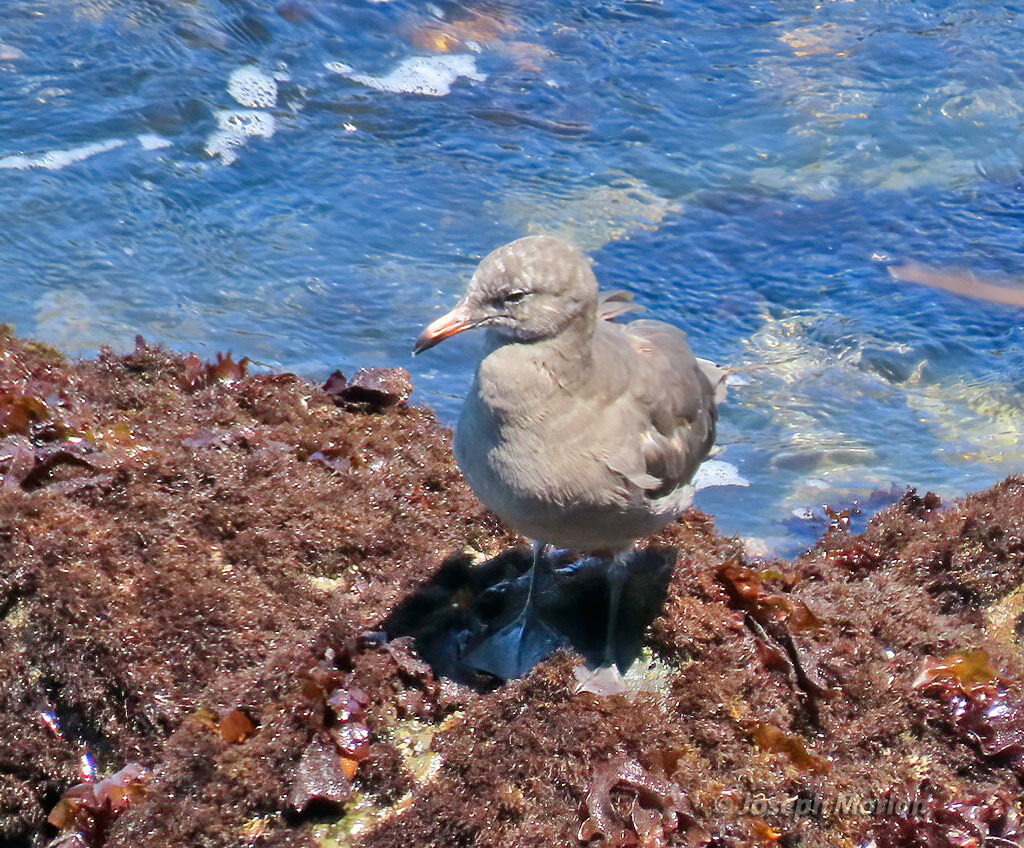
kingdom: Animalia
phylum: Chordata
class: Aves
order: Charadriiformes
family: Laridae
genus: Larus
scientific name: Larus heermanni
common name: Heermann's gull
